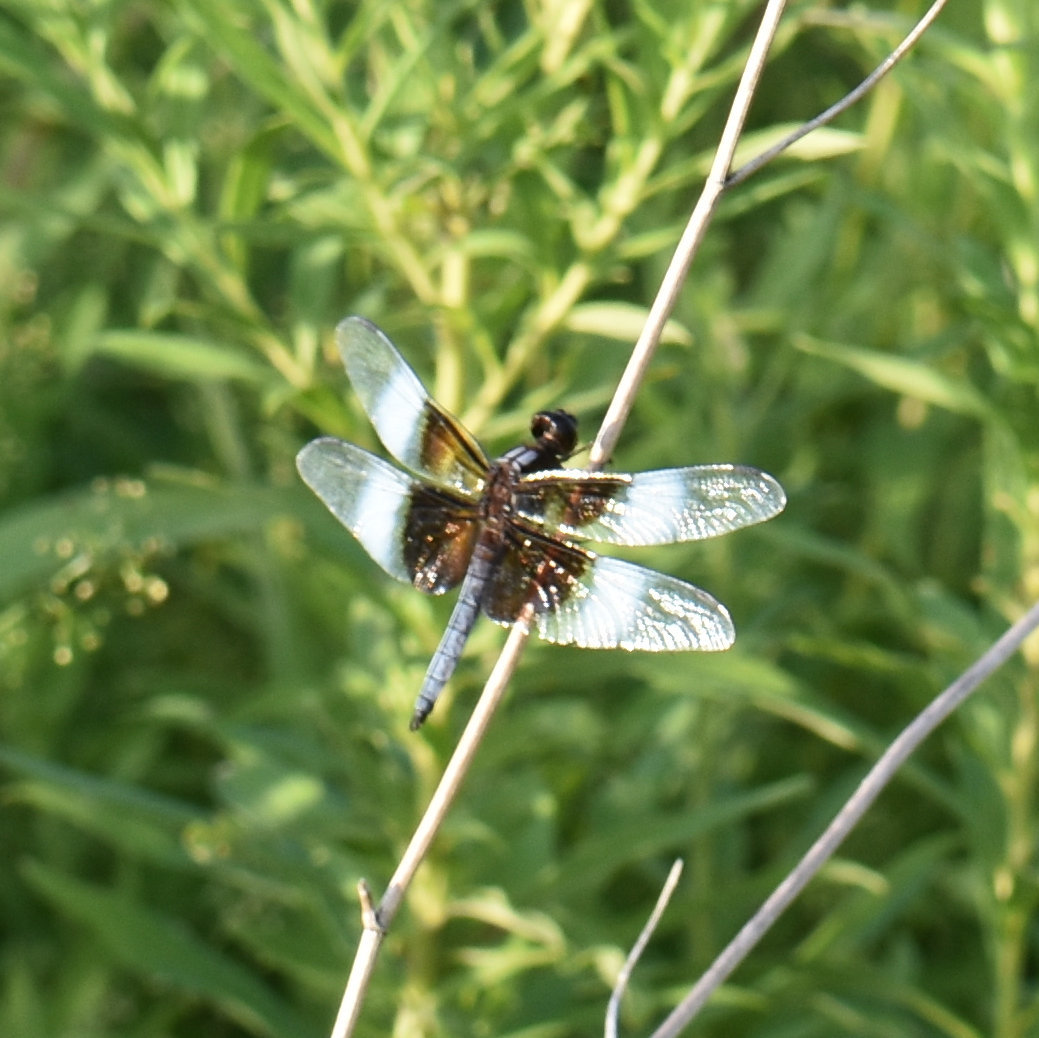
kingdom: Animalia
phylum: Arthropoda
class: Insecta
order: Odonata
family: Libellulidae
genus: Libellula
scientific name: Libellula luctuosa
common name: Widow skimmer
